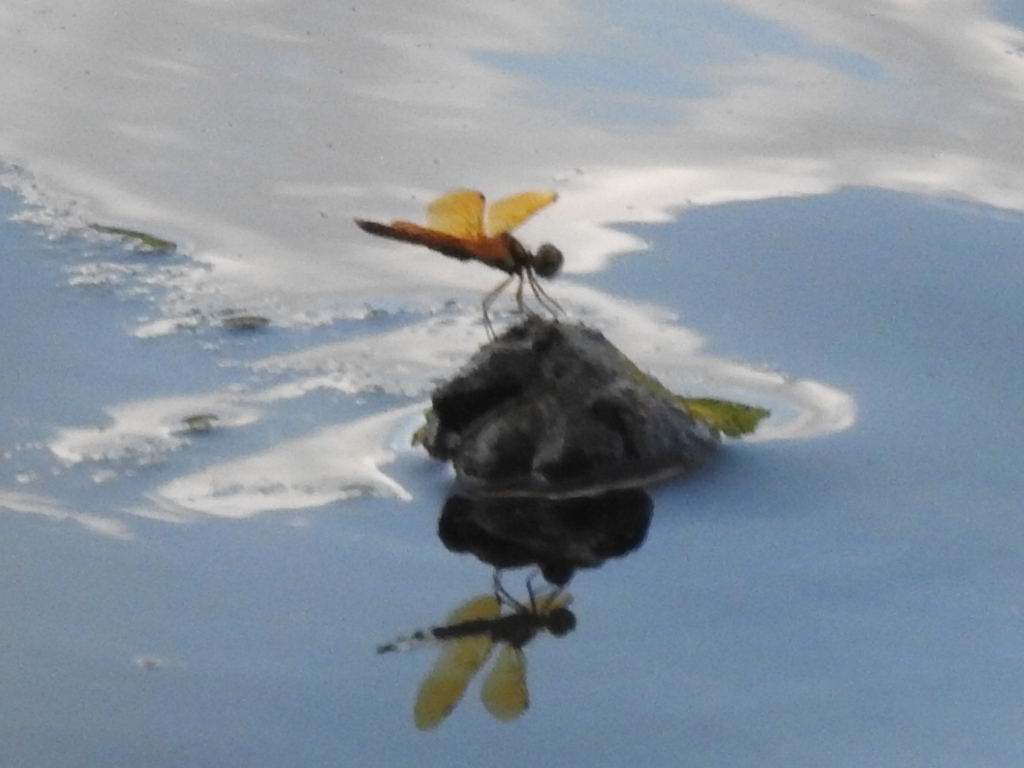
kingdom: Animalia
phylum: Arthropoda
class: Insecta
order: Odonata
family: Libellulidae
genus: Perithemis
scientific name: Perithemis tenera
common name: Eastern amberwing
